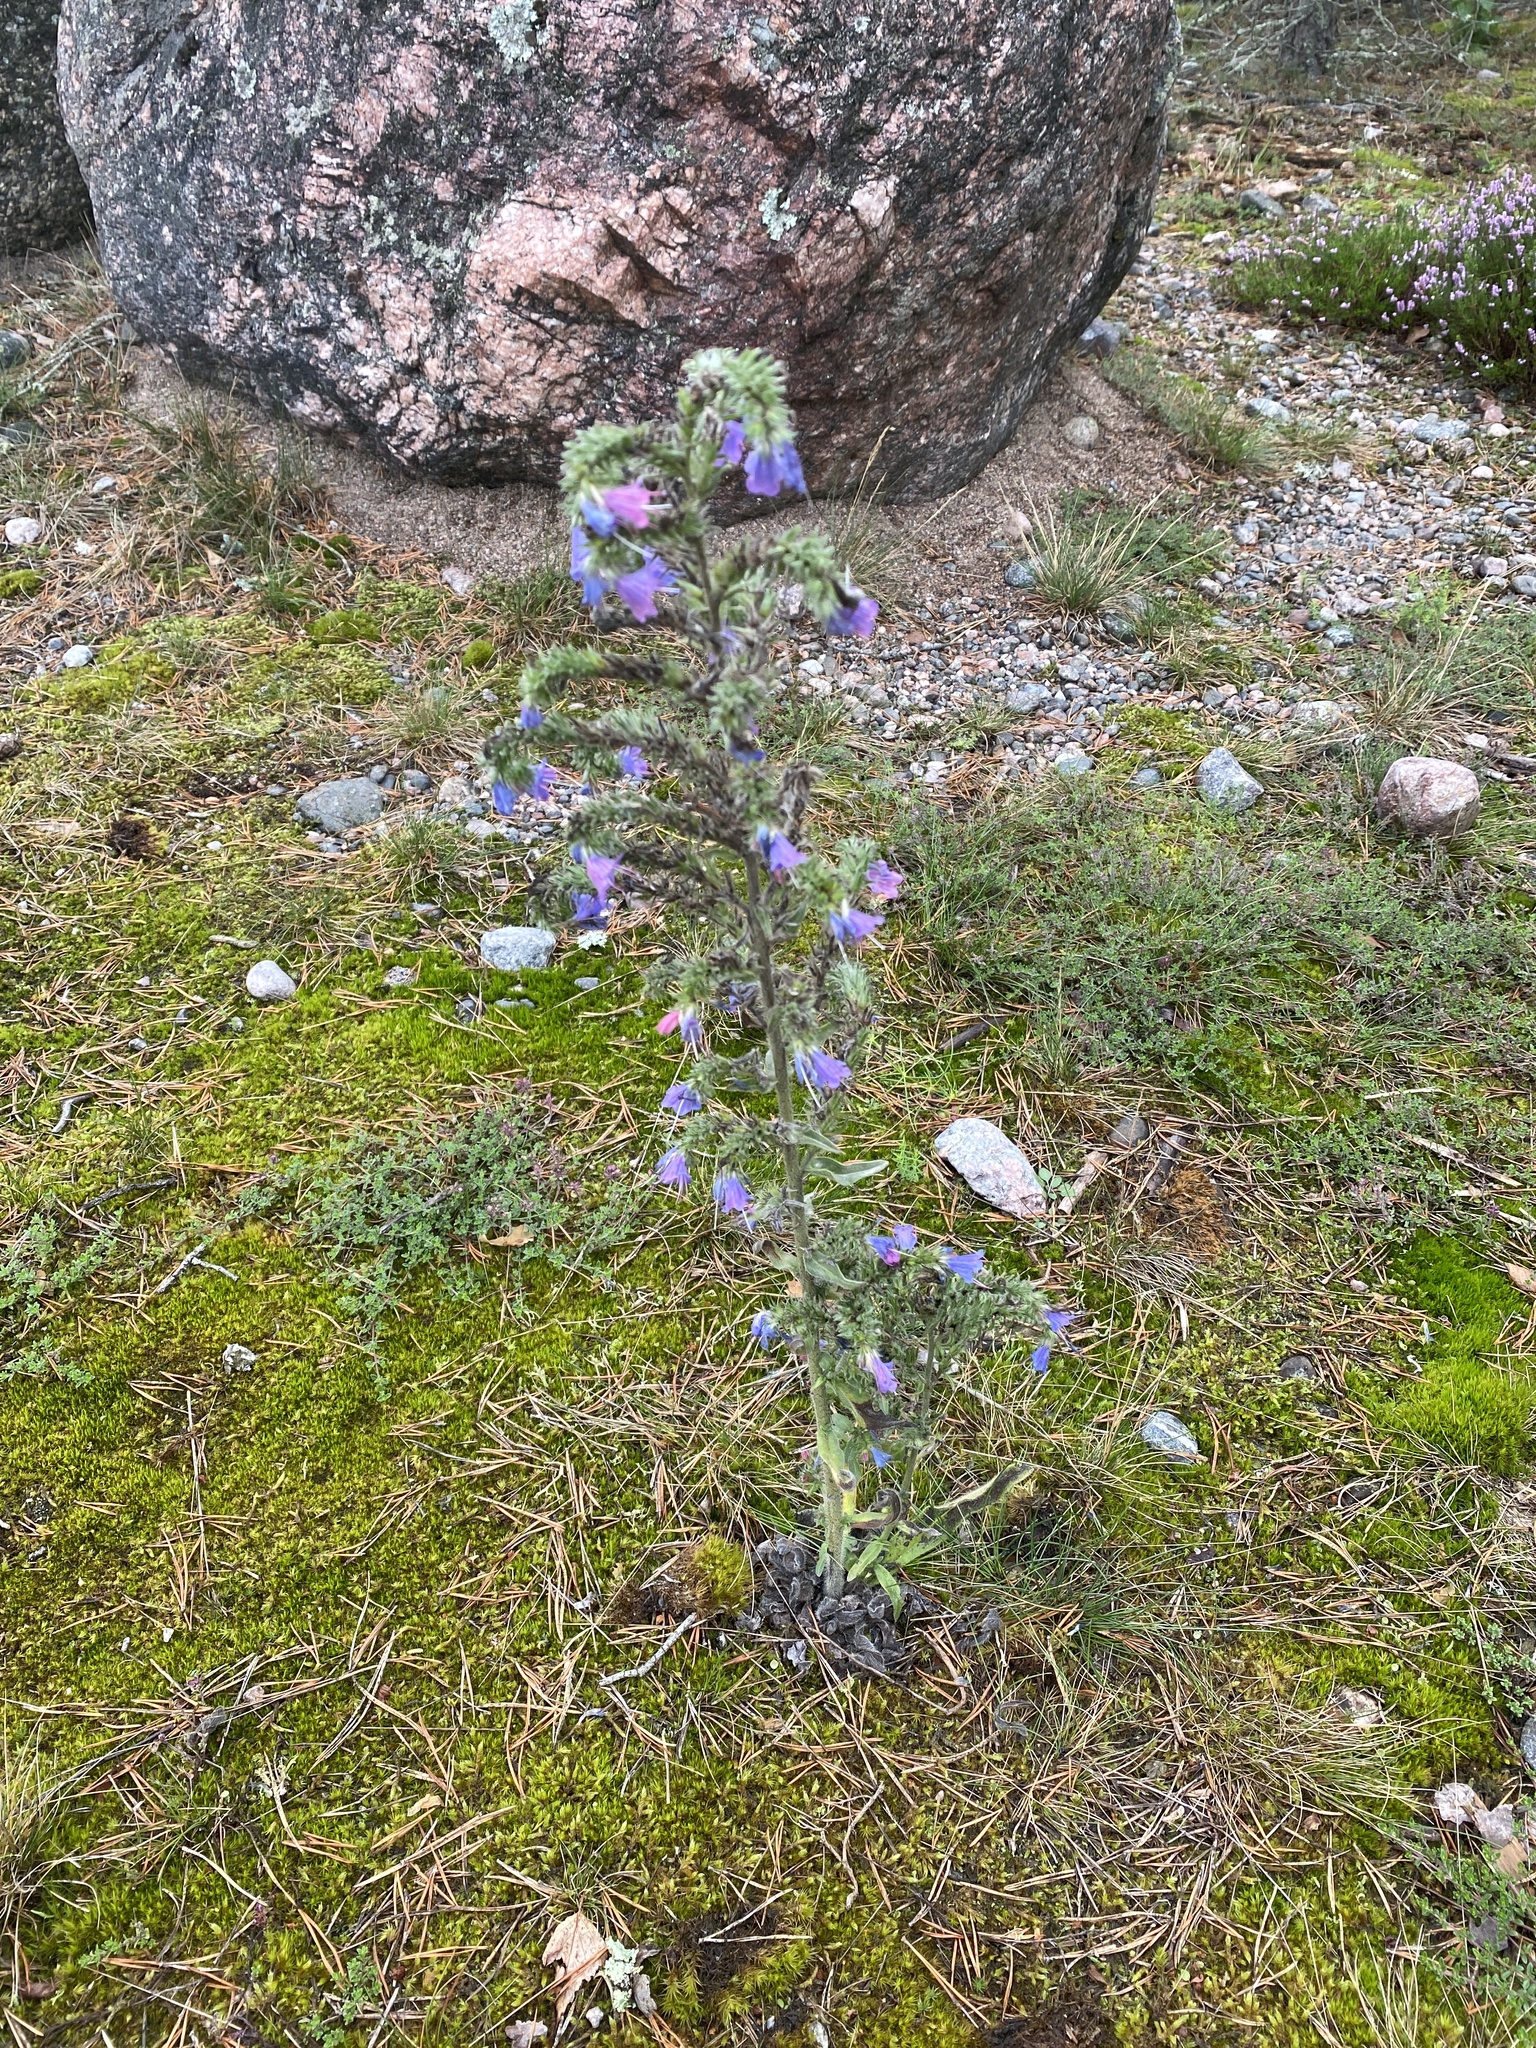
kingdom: Plantae
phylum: Tracheophyta
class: Magnoliopsida
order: Boraginales
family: Boraginaceae
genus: Echium
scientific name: Echium vulgare
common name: Common viper's bugloss
